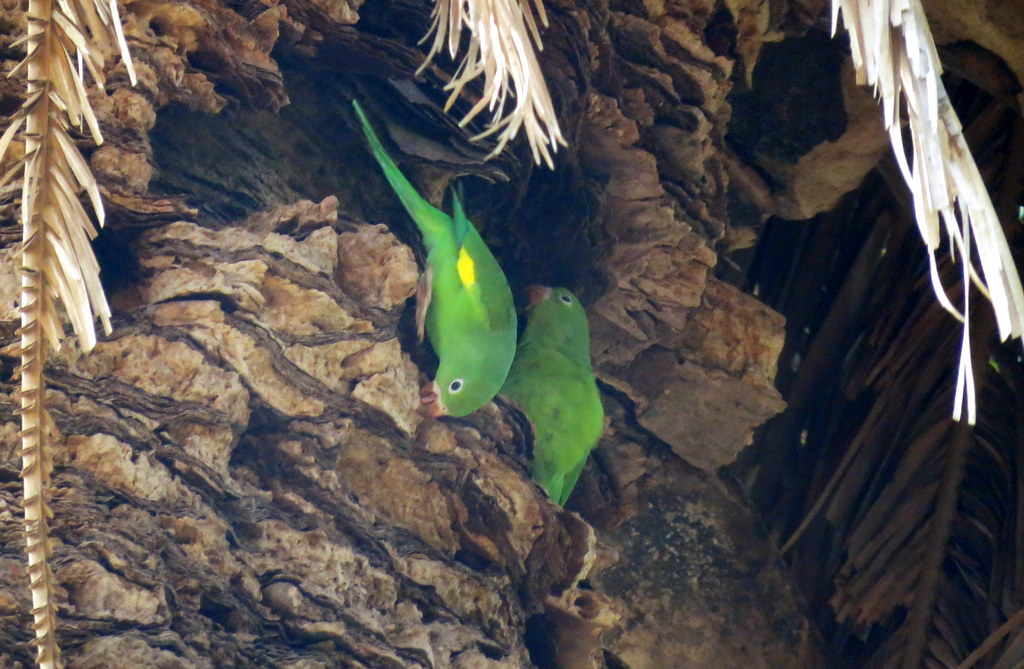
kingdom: Animalia
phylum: Chordata
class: Aves
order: Psittaciformes
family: Psittacidae
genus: Brotogeris
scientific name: Brotogeris chiriri
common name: Yellow-chevroned parakeet
